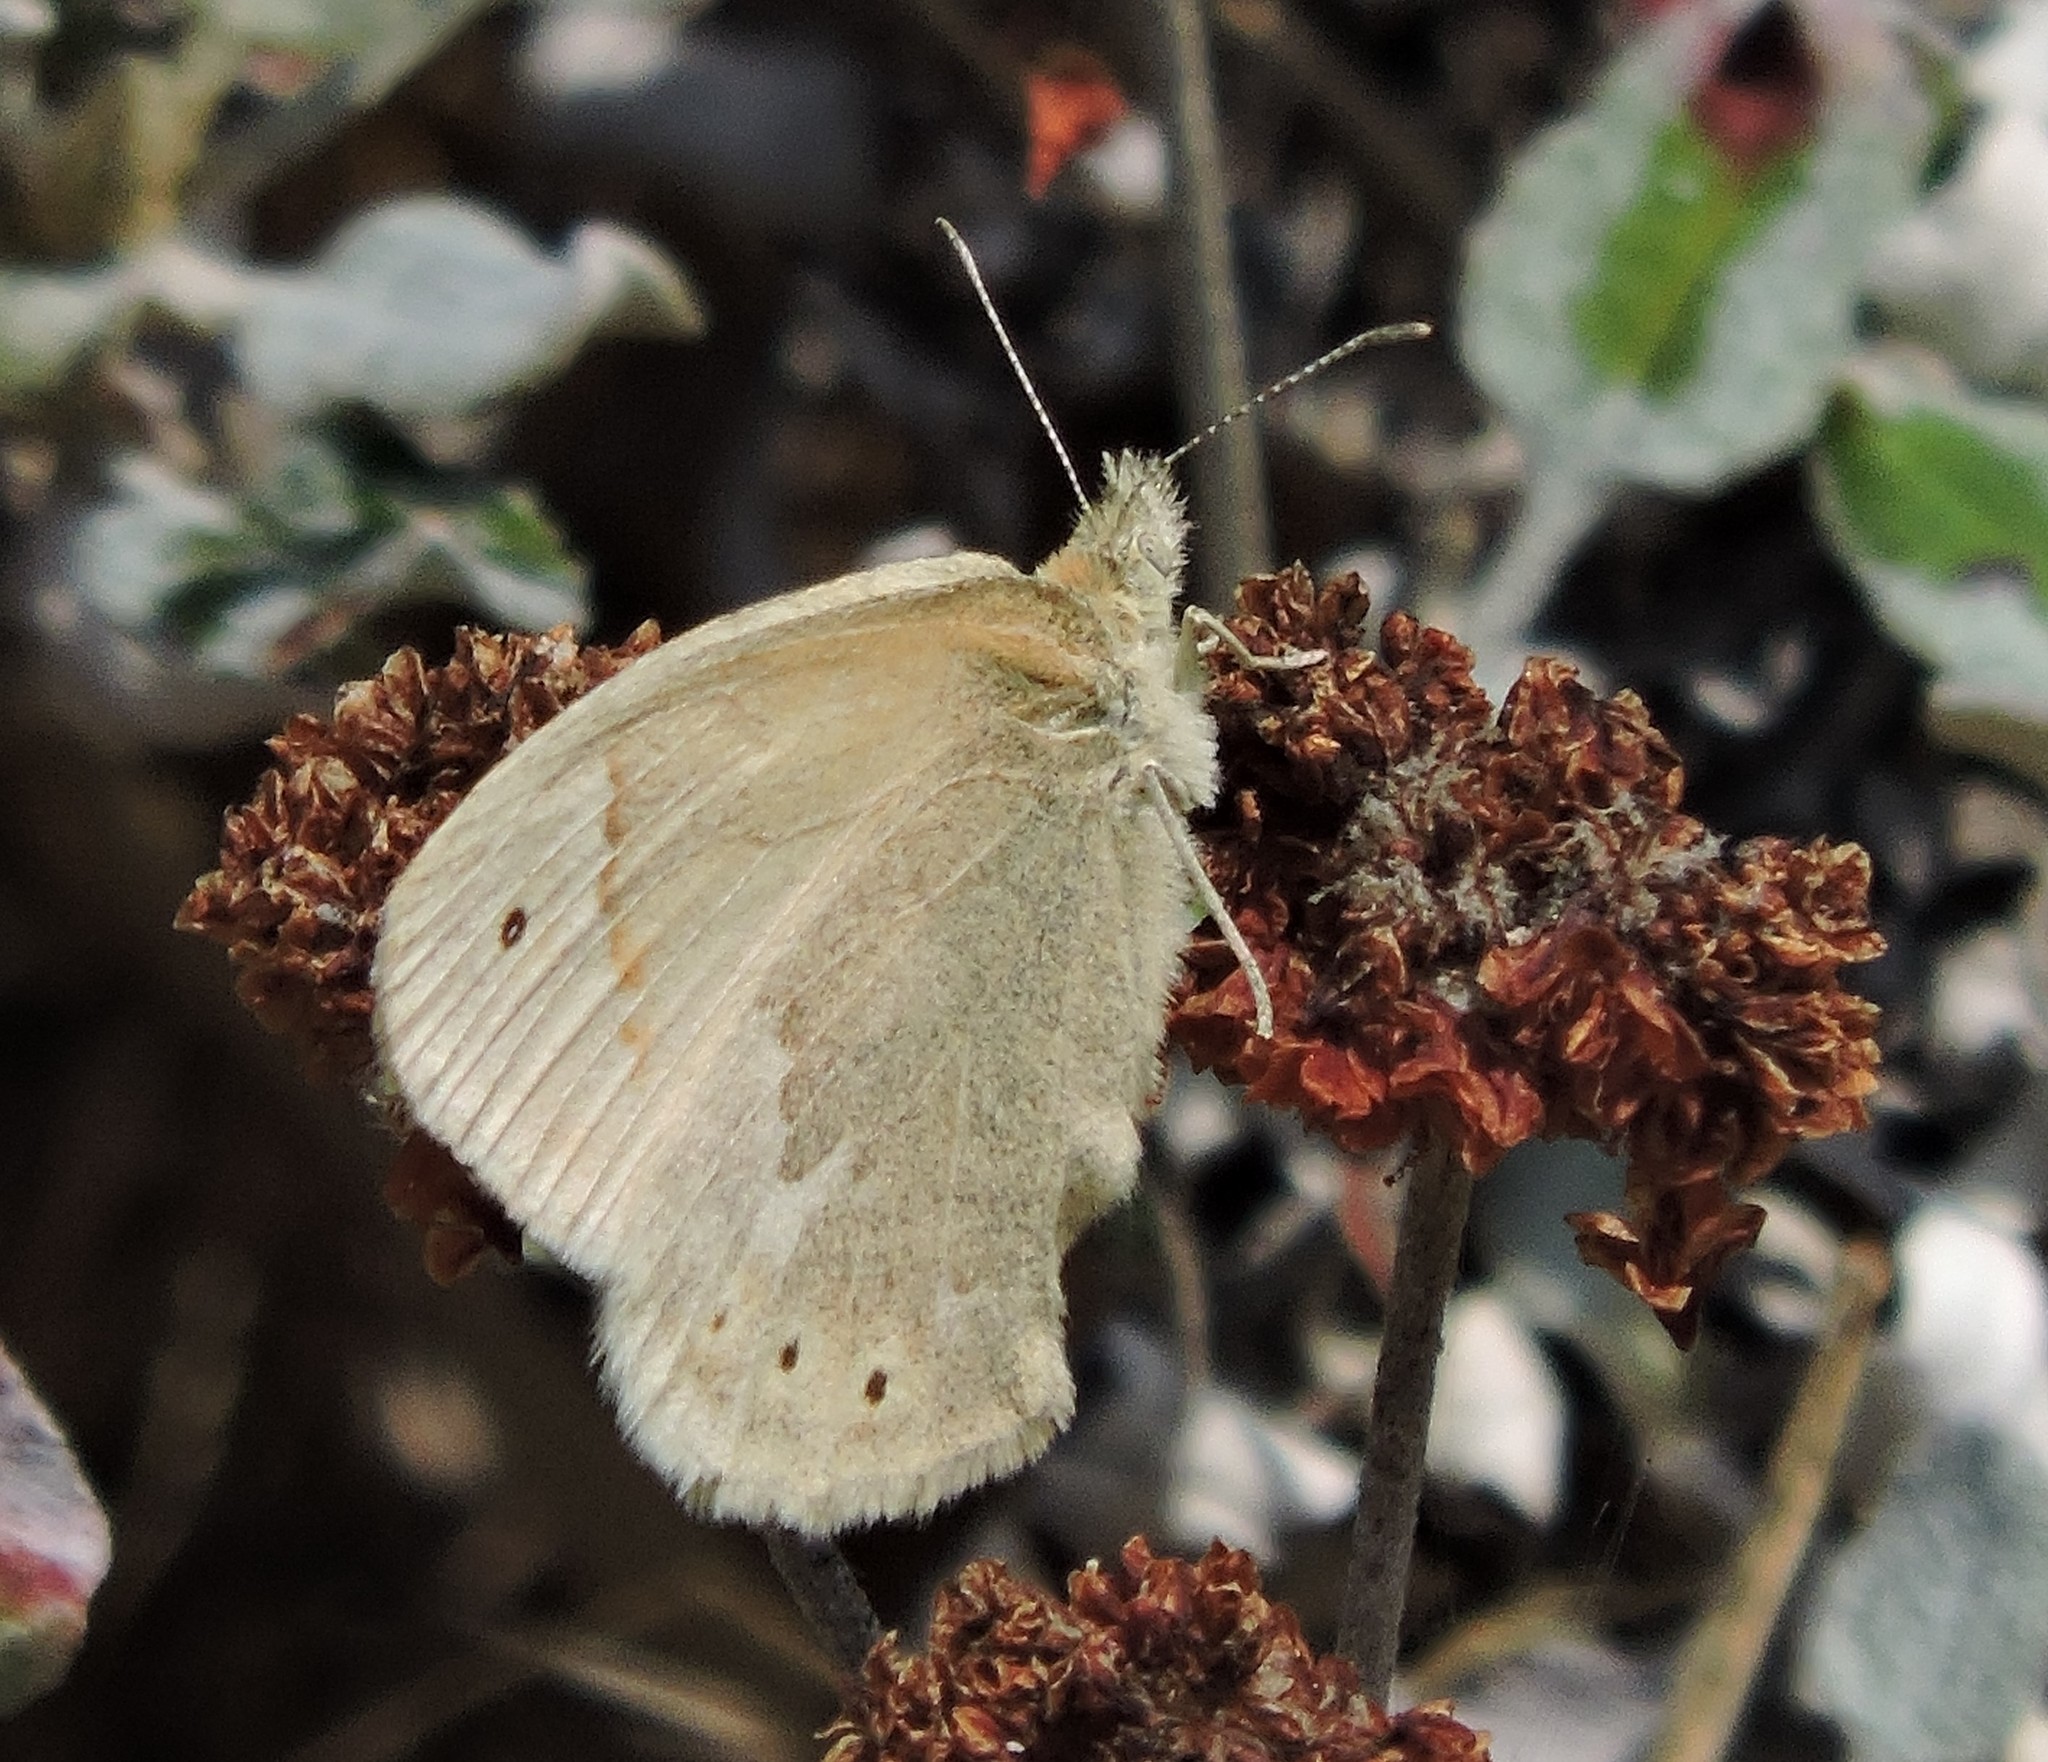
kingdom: Animalia
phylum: Arthropoda
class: Insecta
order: Lepidoptera
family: Nymphalidae
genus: Coenonympha
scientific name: Coenonympha california
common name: Common ringlet
